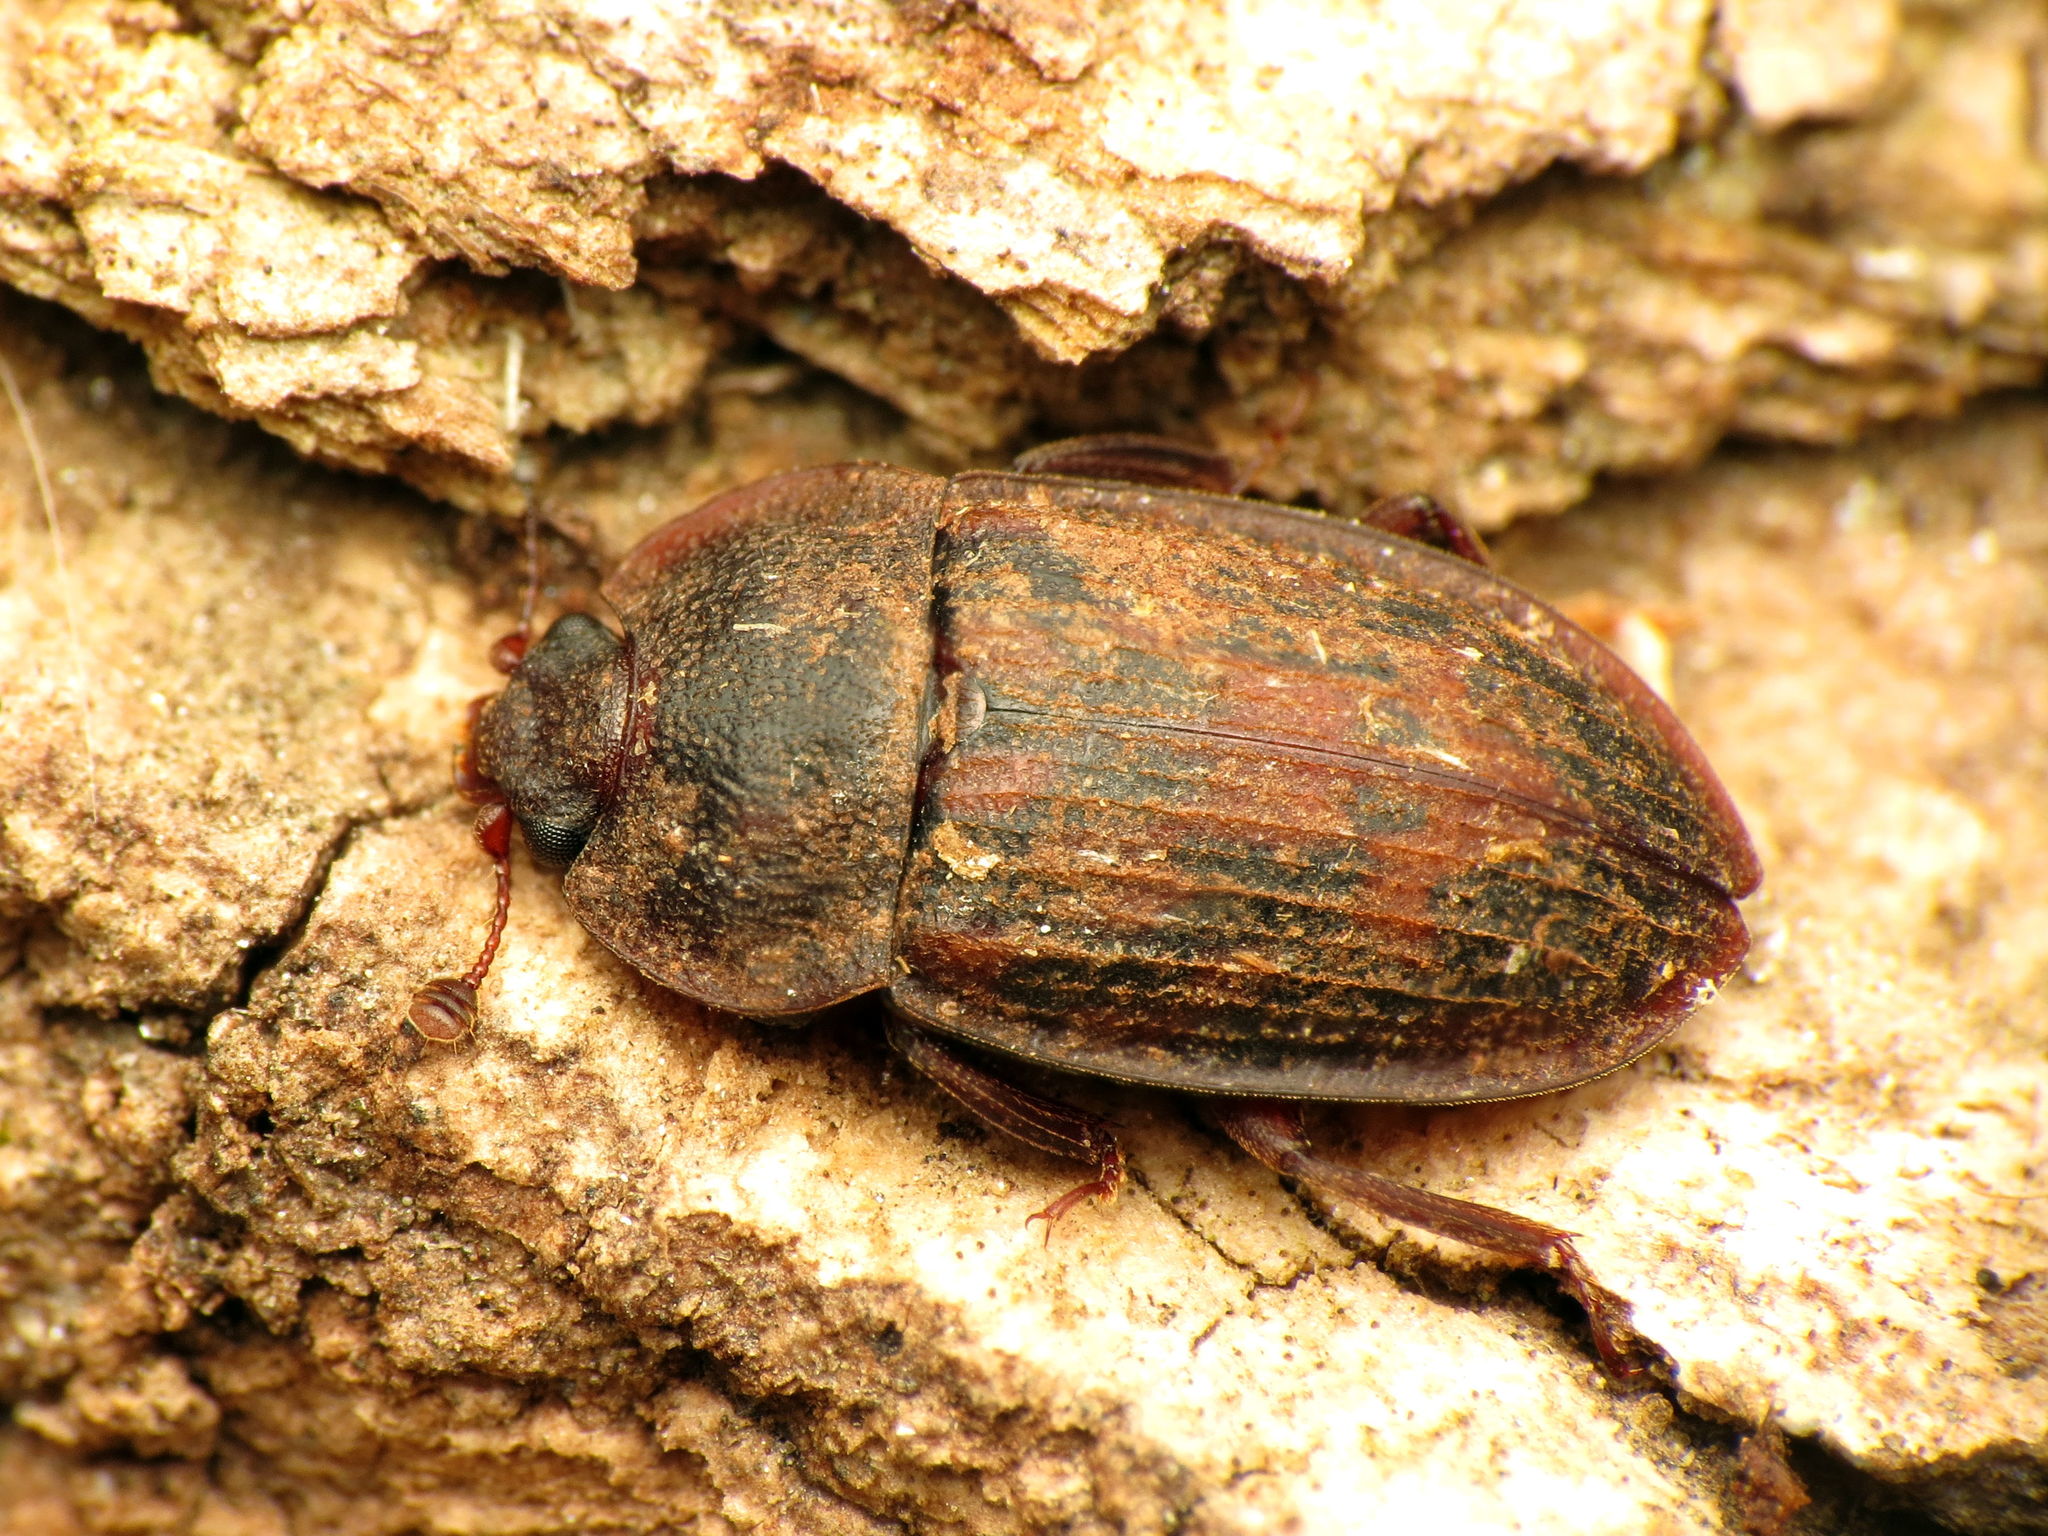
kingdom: Animalia
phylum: Arthropoda
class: Insecta
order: Coleoptera
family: Nitidulidae
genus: Phenolia
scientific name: Phenolia grossa
